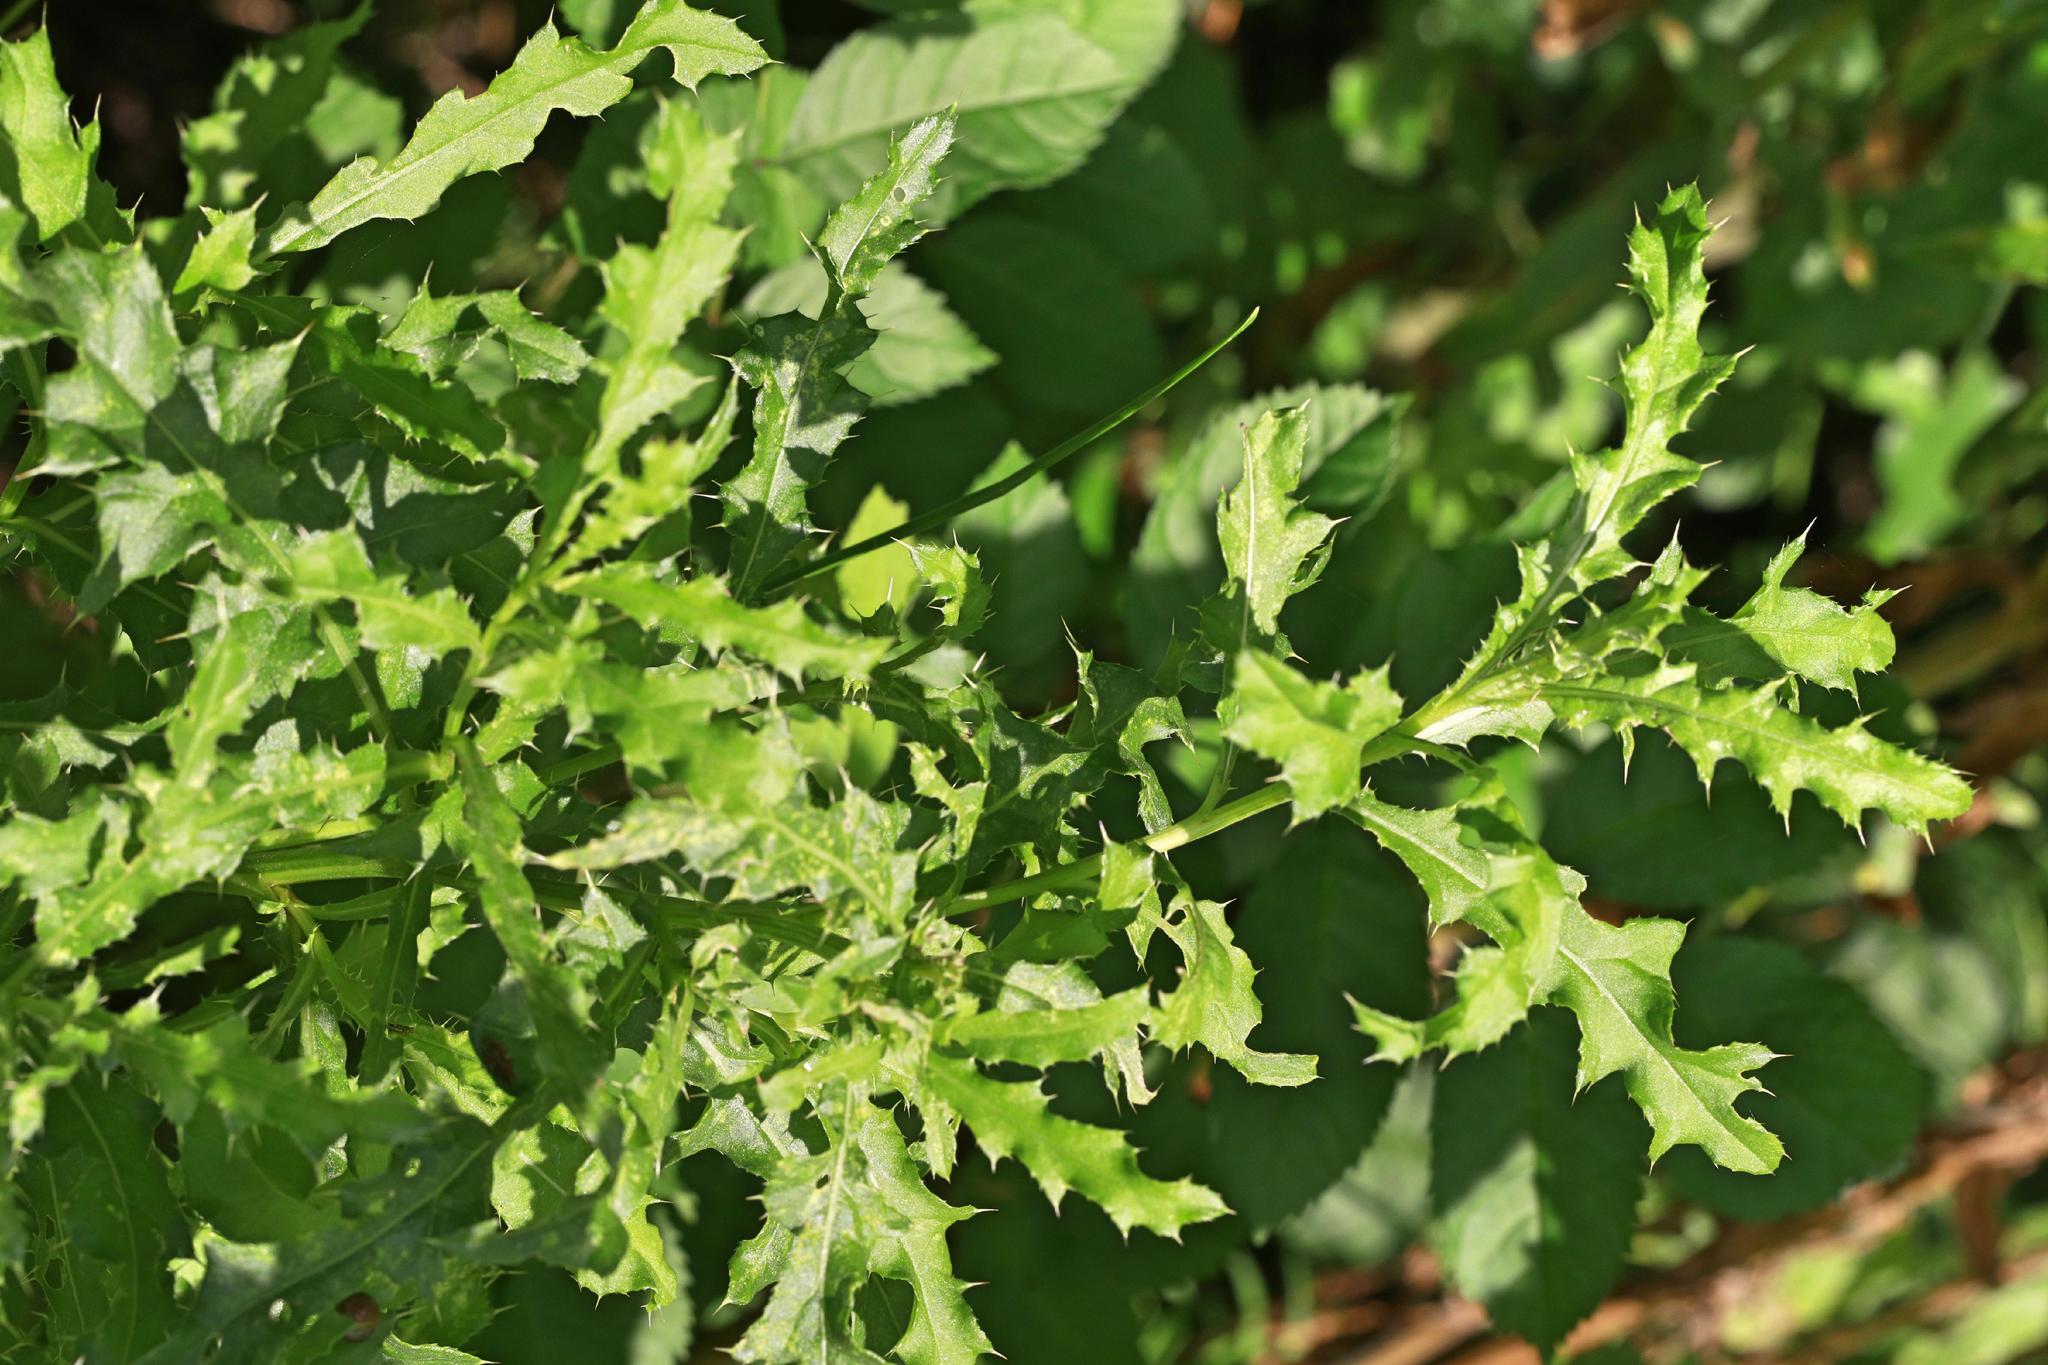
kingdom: Plantae
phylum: Tracheophyta
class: Magnoliopsida
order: Asterales
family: Asteraceae
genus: Cirsium
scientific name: Cirsium arvense
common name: Creeping thistle
